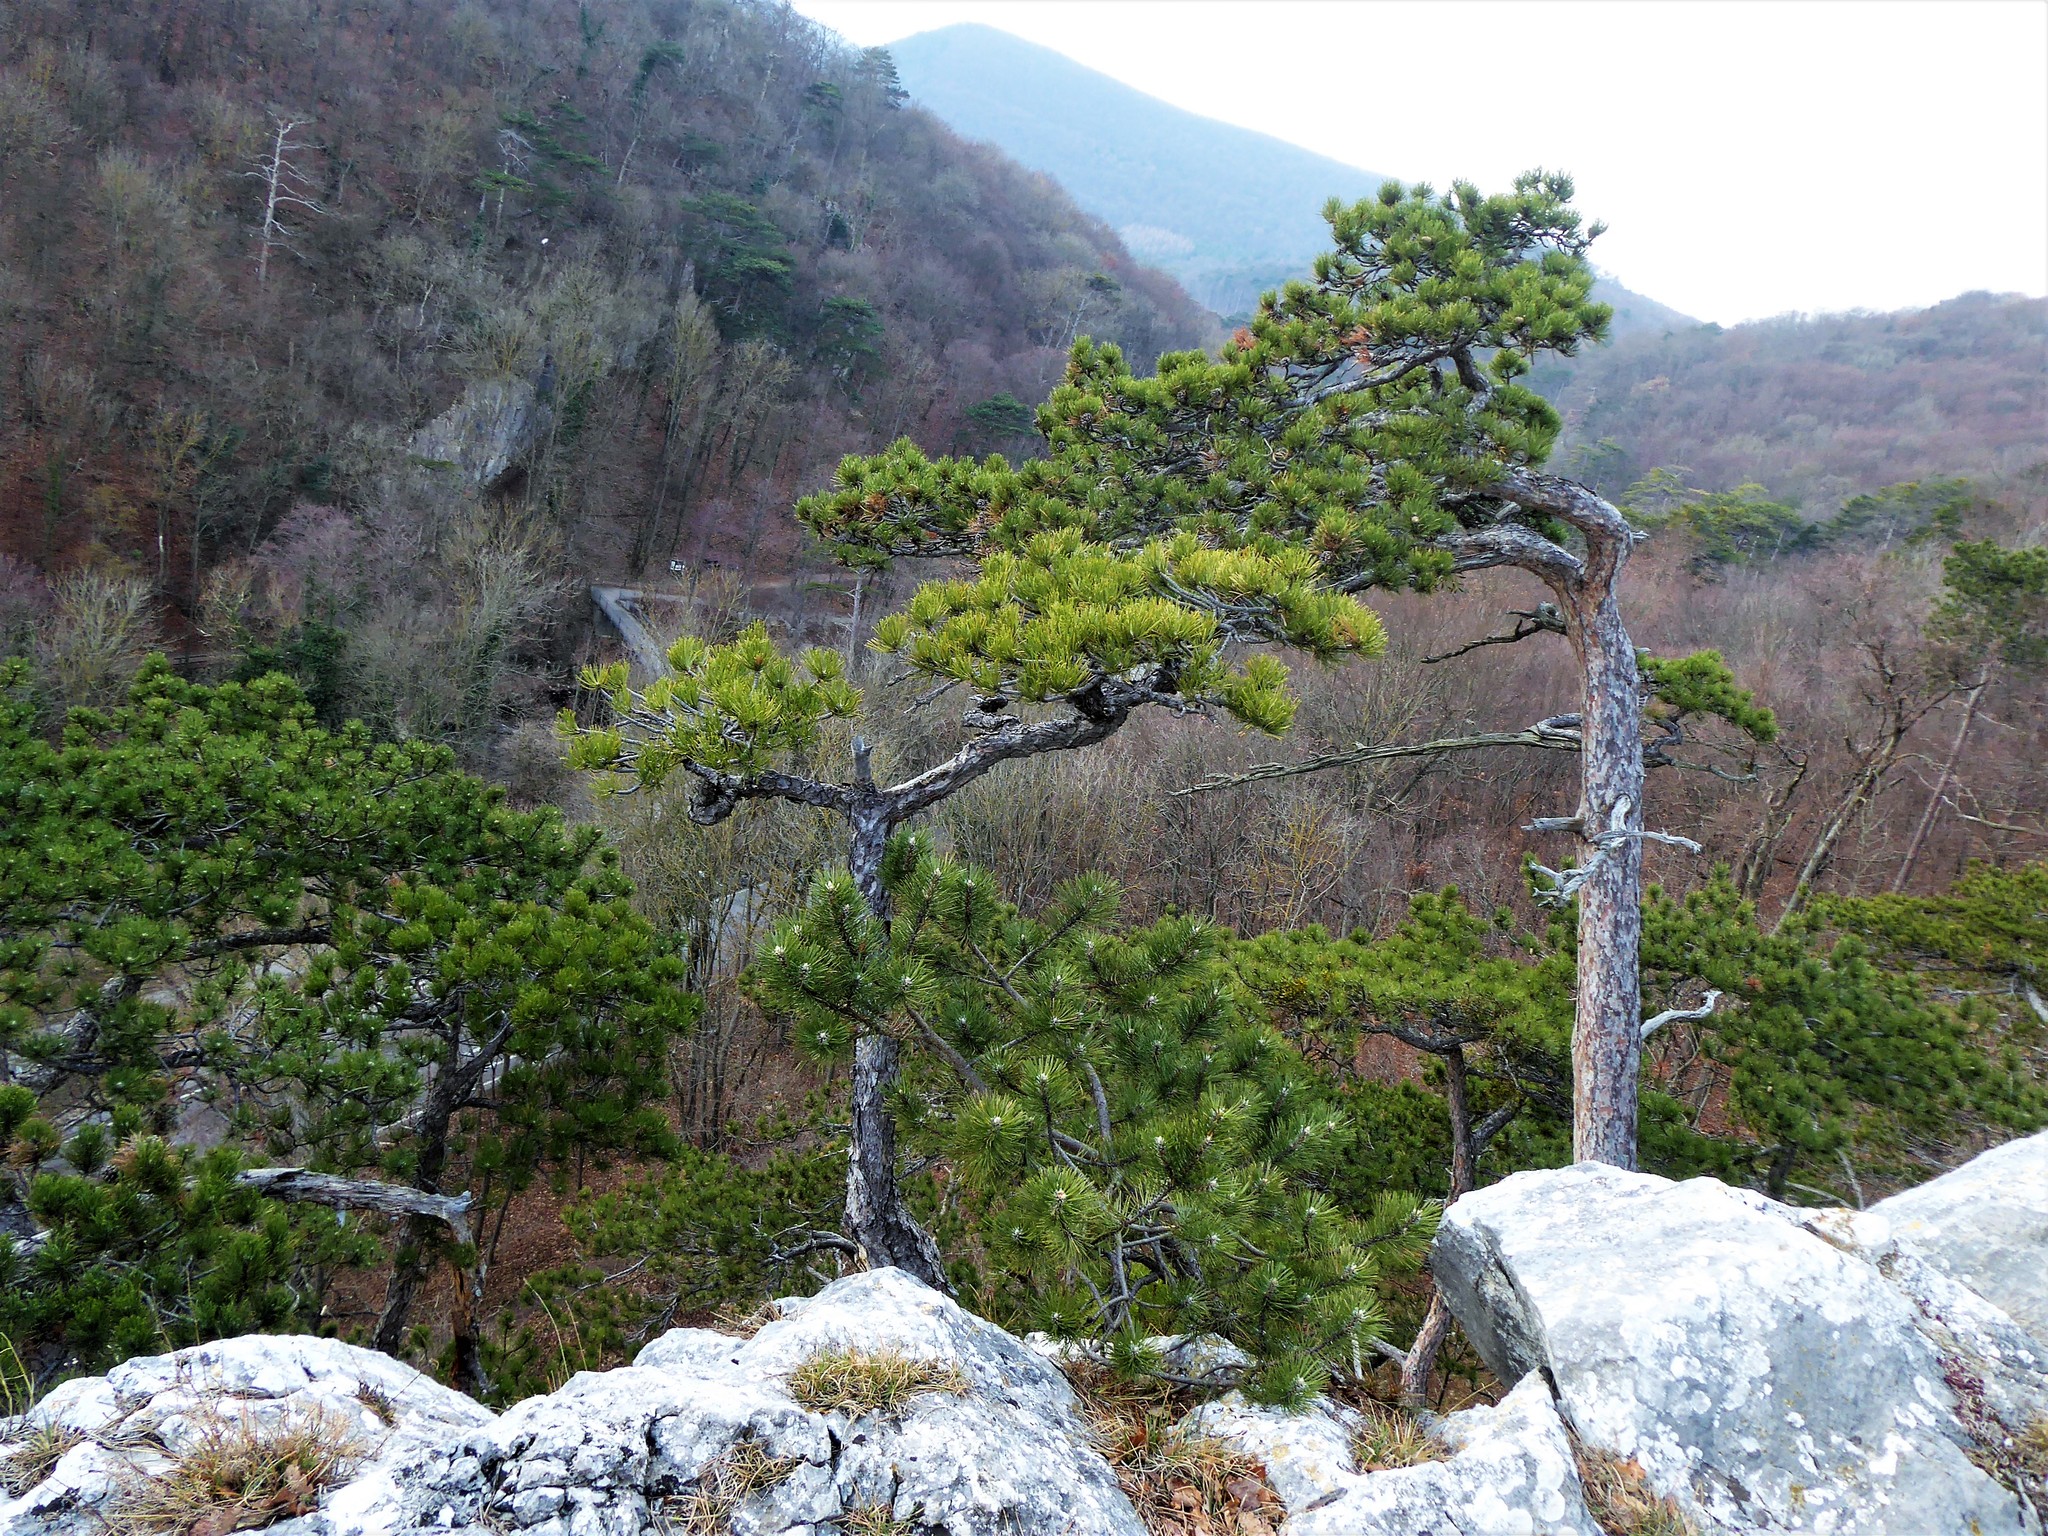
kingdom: Plantae
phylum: Tracheophyta
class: Pinopsida
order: Pinales
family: Pinaceae
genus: Pinus
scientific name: Pinus nigra
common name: Austrian pine
